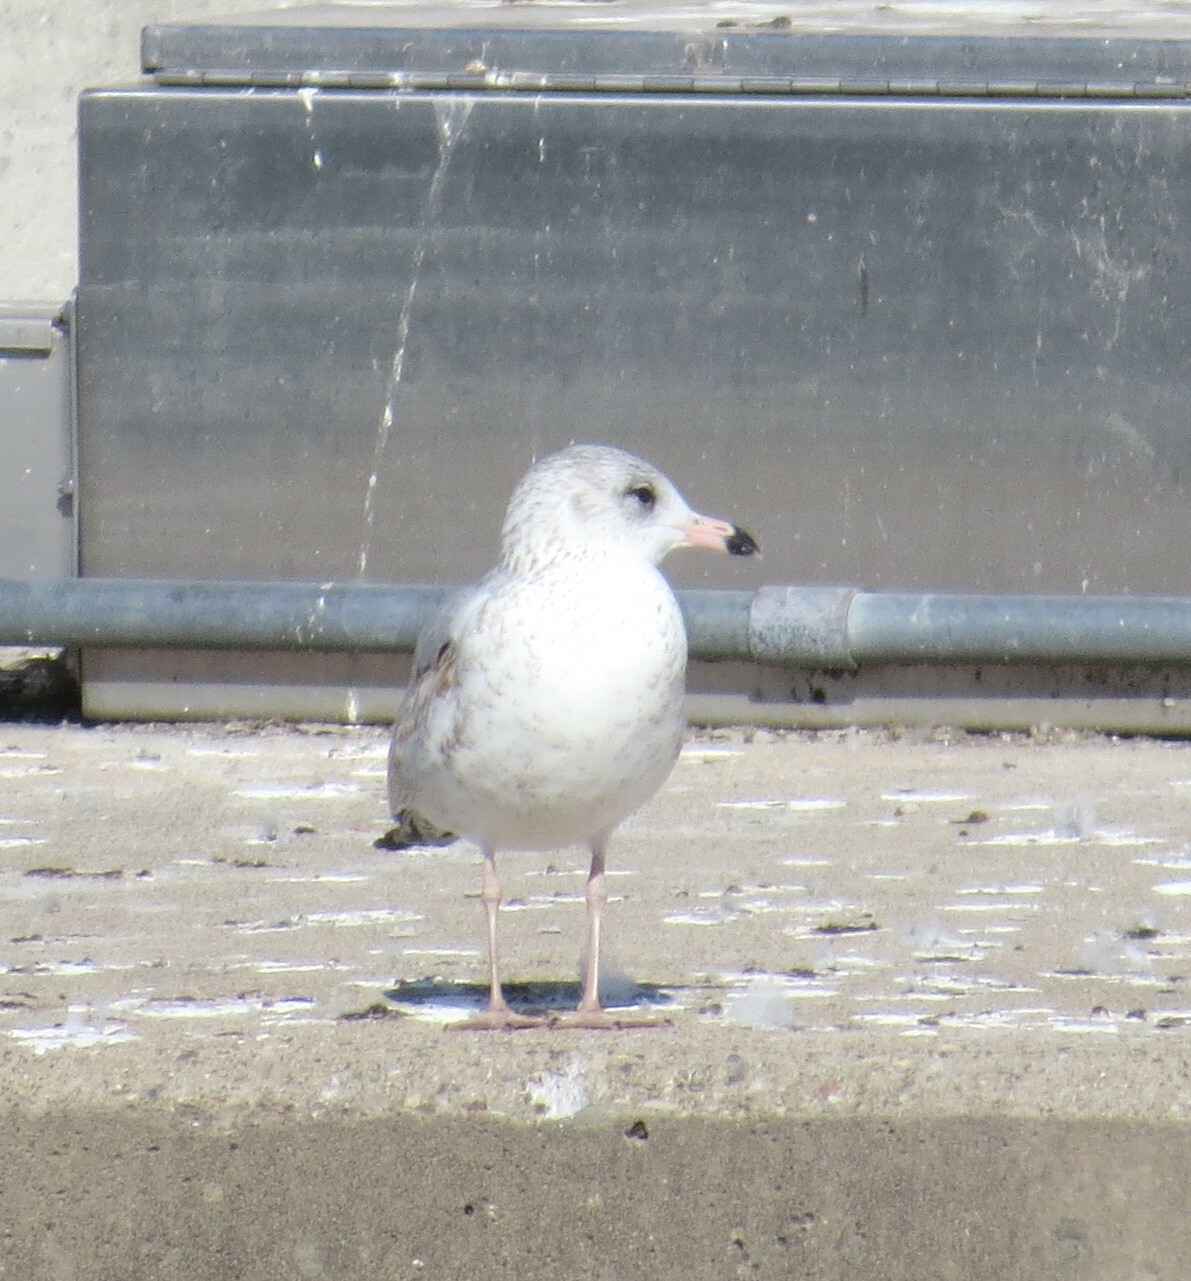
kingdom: Animalia
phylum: Chordata
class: Aves
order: Charadriiformes
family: Laridae
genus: Larus
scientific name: Larus delawarensis
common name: Ring-billed gull
